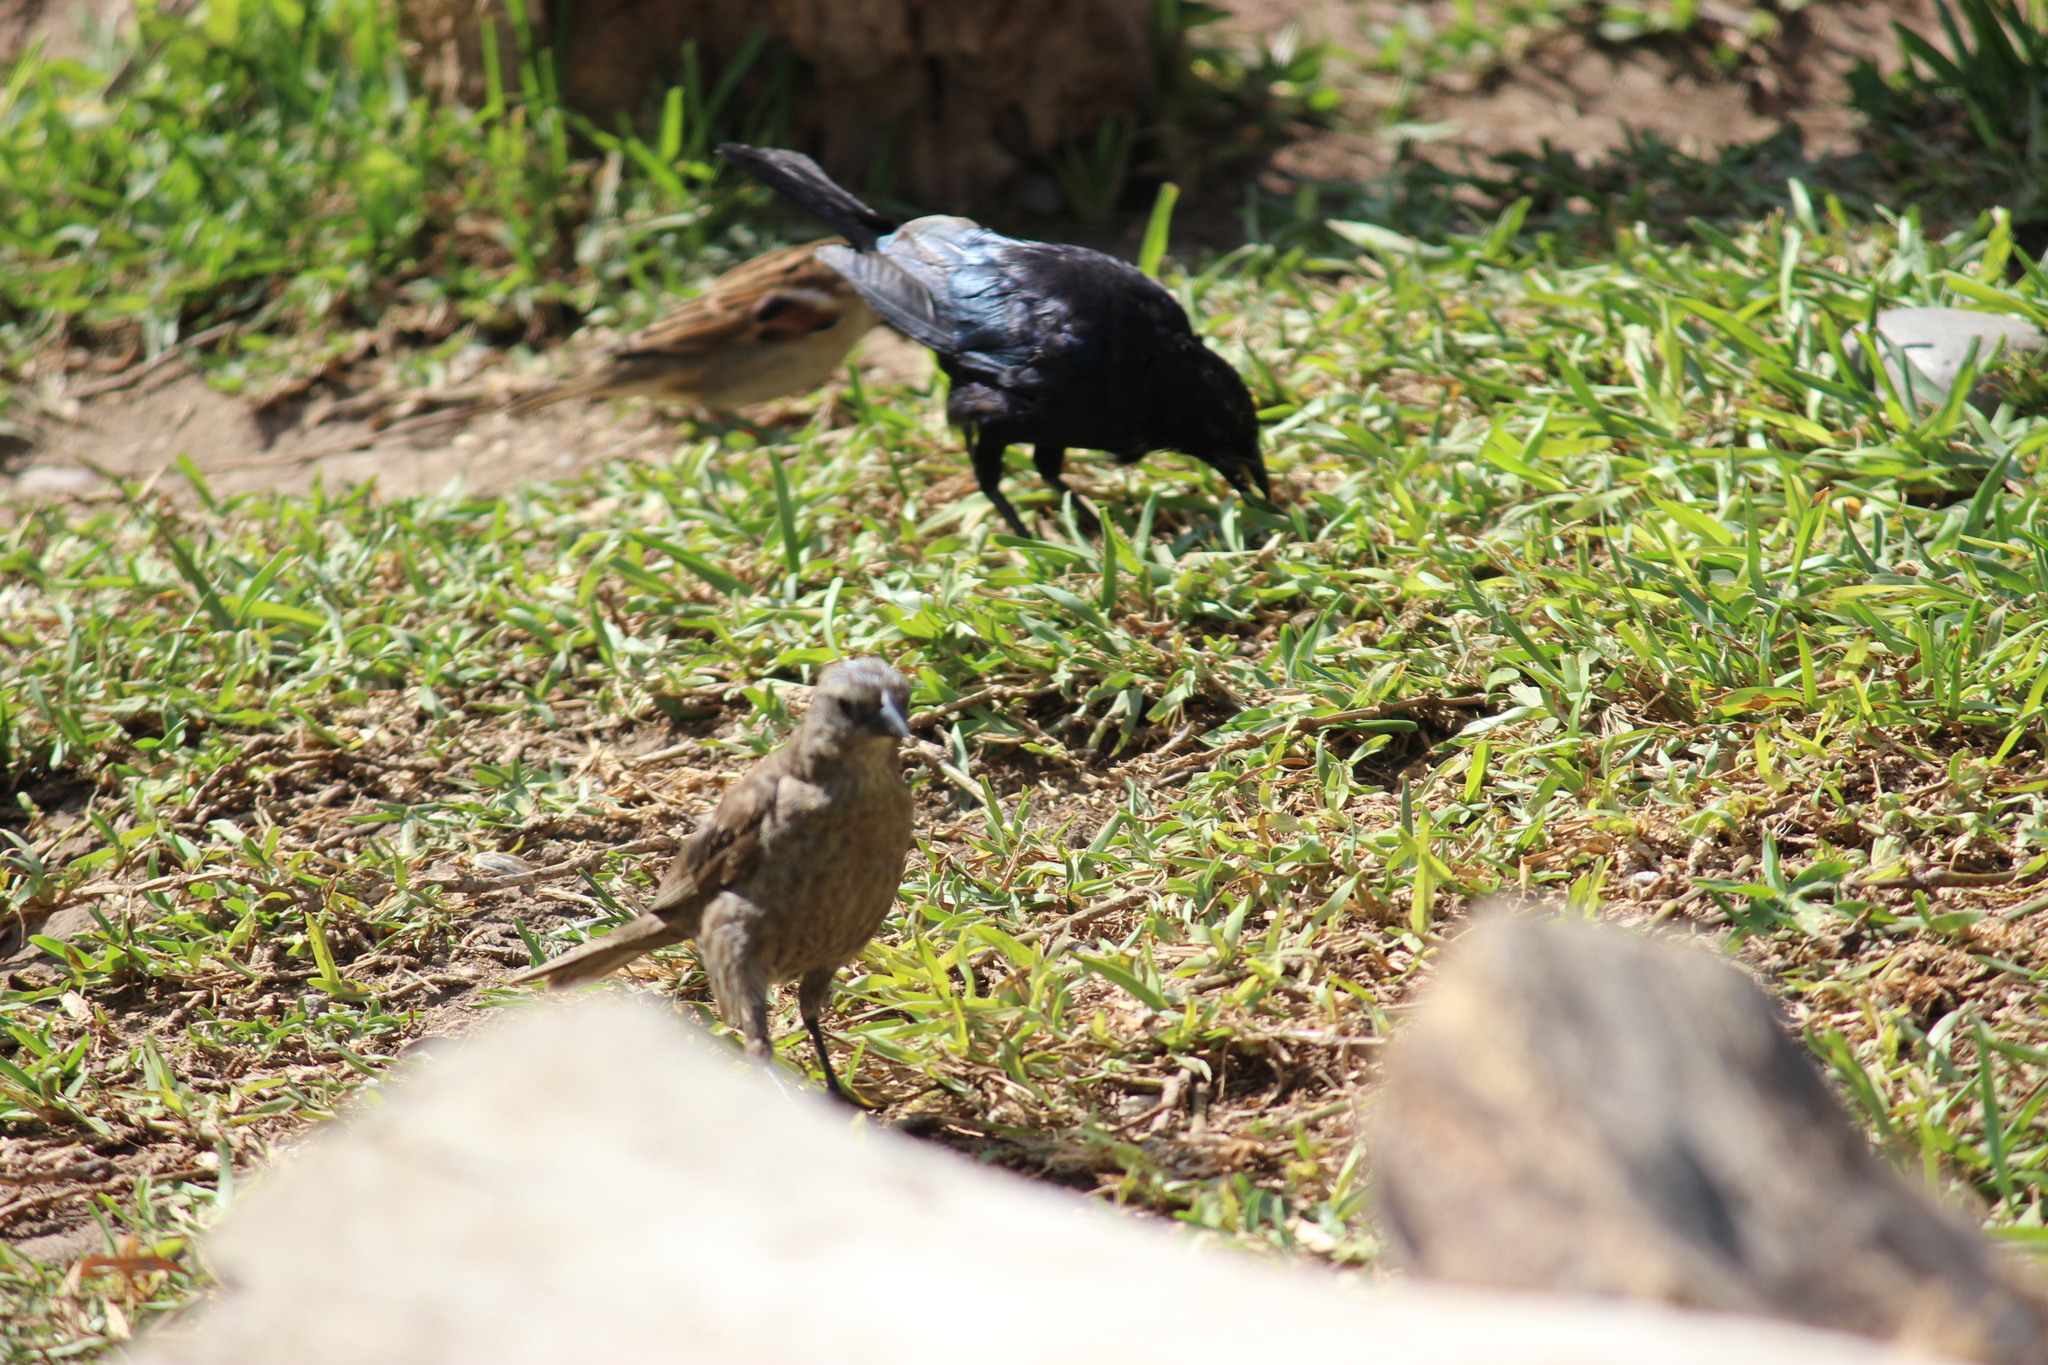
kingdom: Animalia
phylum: Chordata
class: Aves
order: Passeriformes
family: Icteridae
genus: Molothrus
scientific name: Molothrus bonariensis
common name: Shiny cowbird
